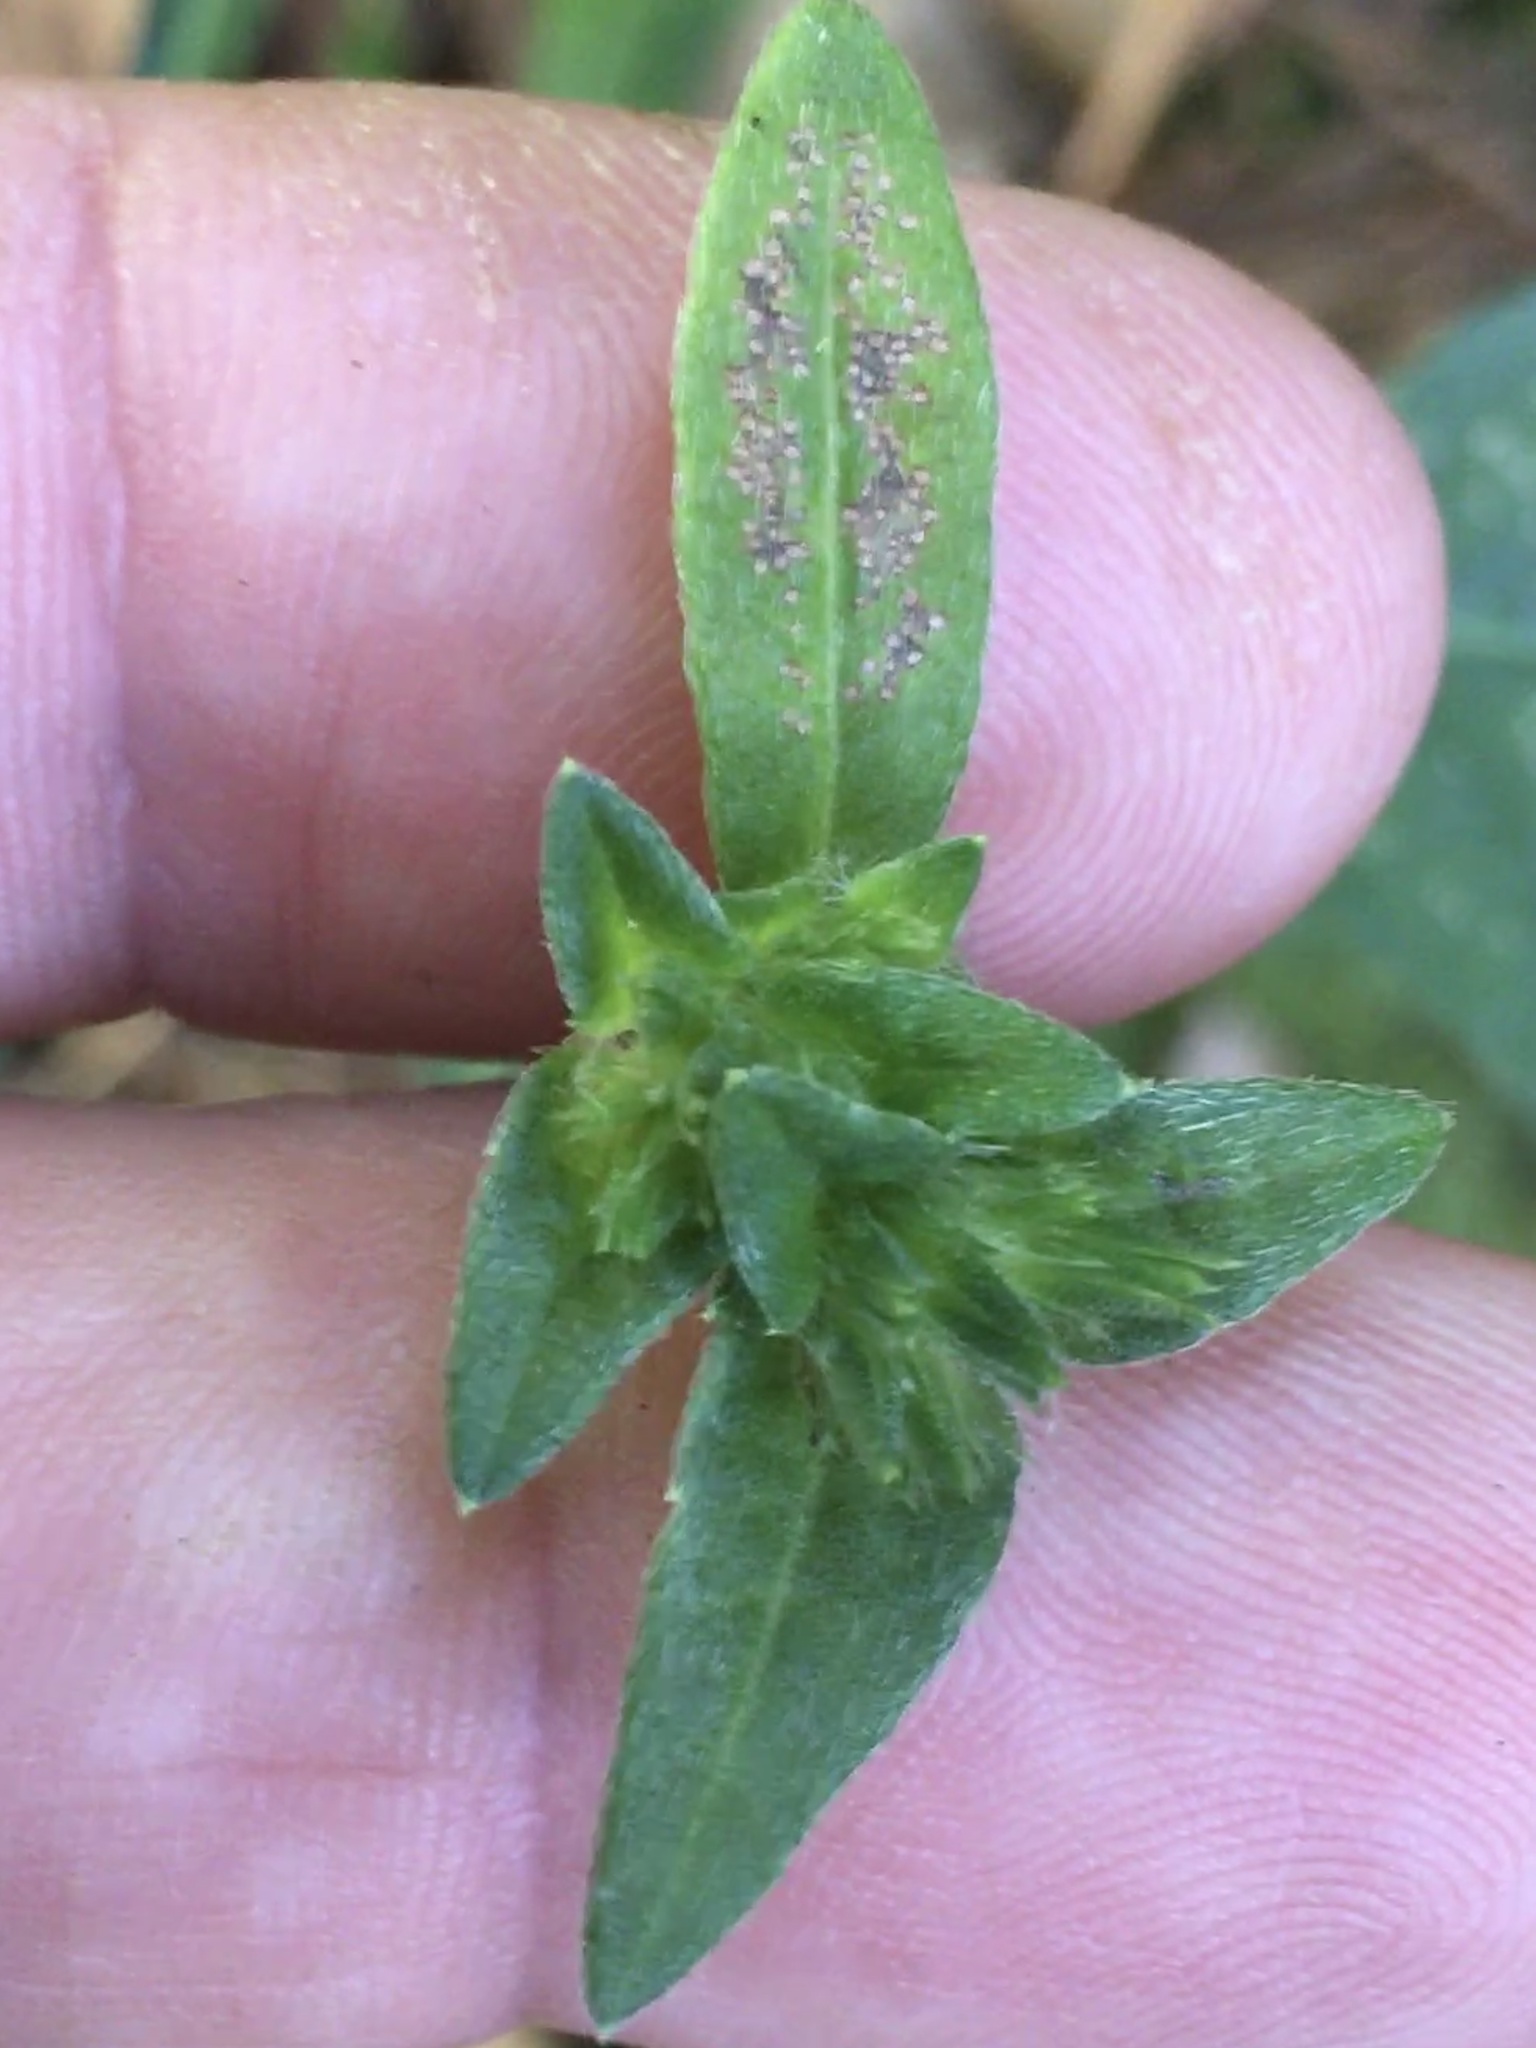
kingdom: Plantae
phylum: Tracheophyta
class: Magnoliopsida
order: Asterales
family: Asteraceae
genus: Elephantopus
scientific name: Elephantopus carolinianus
